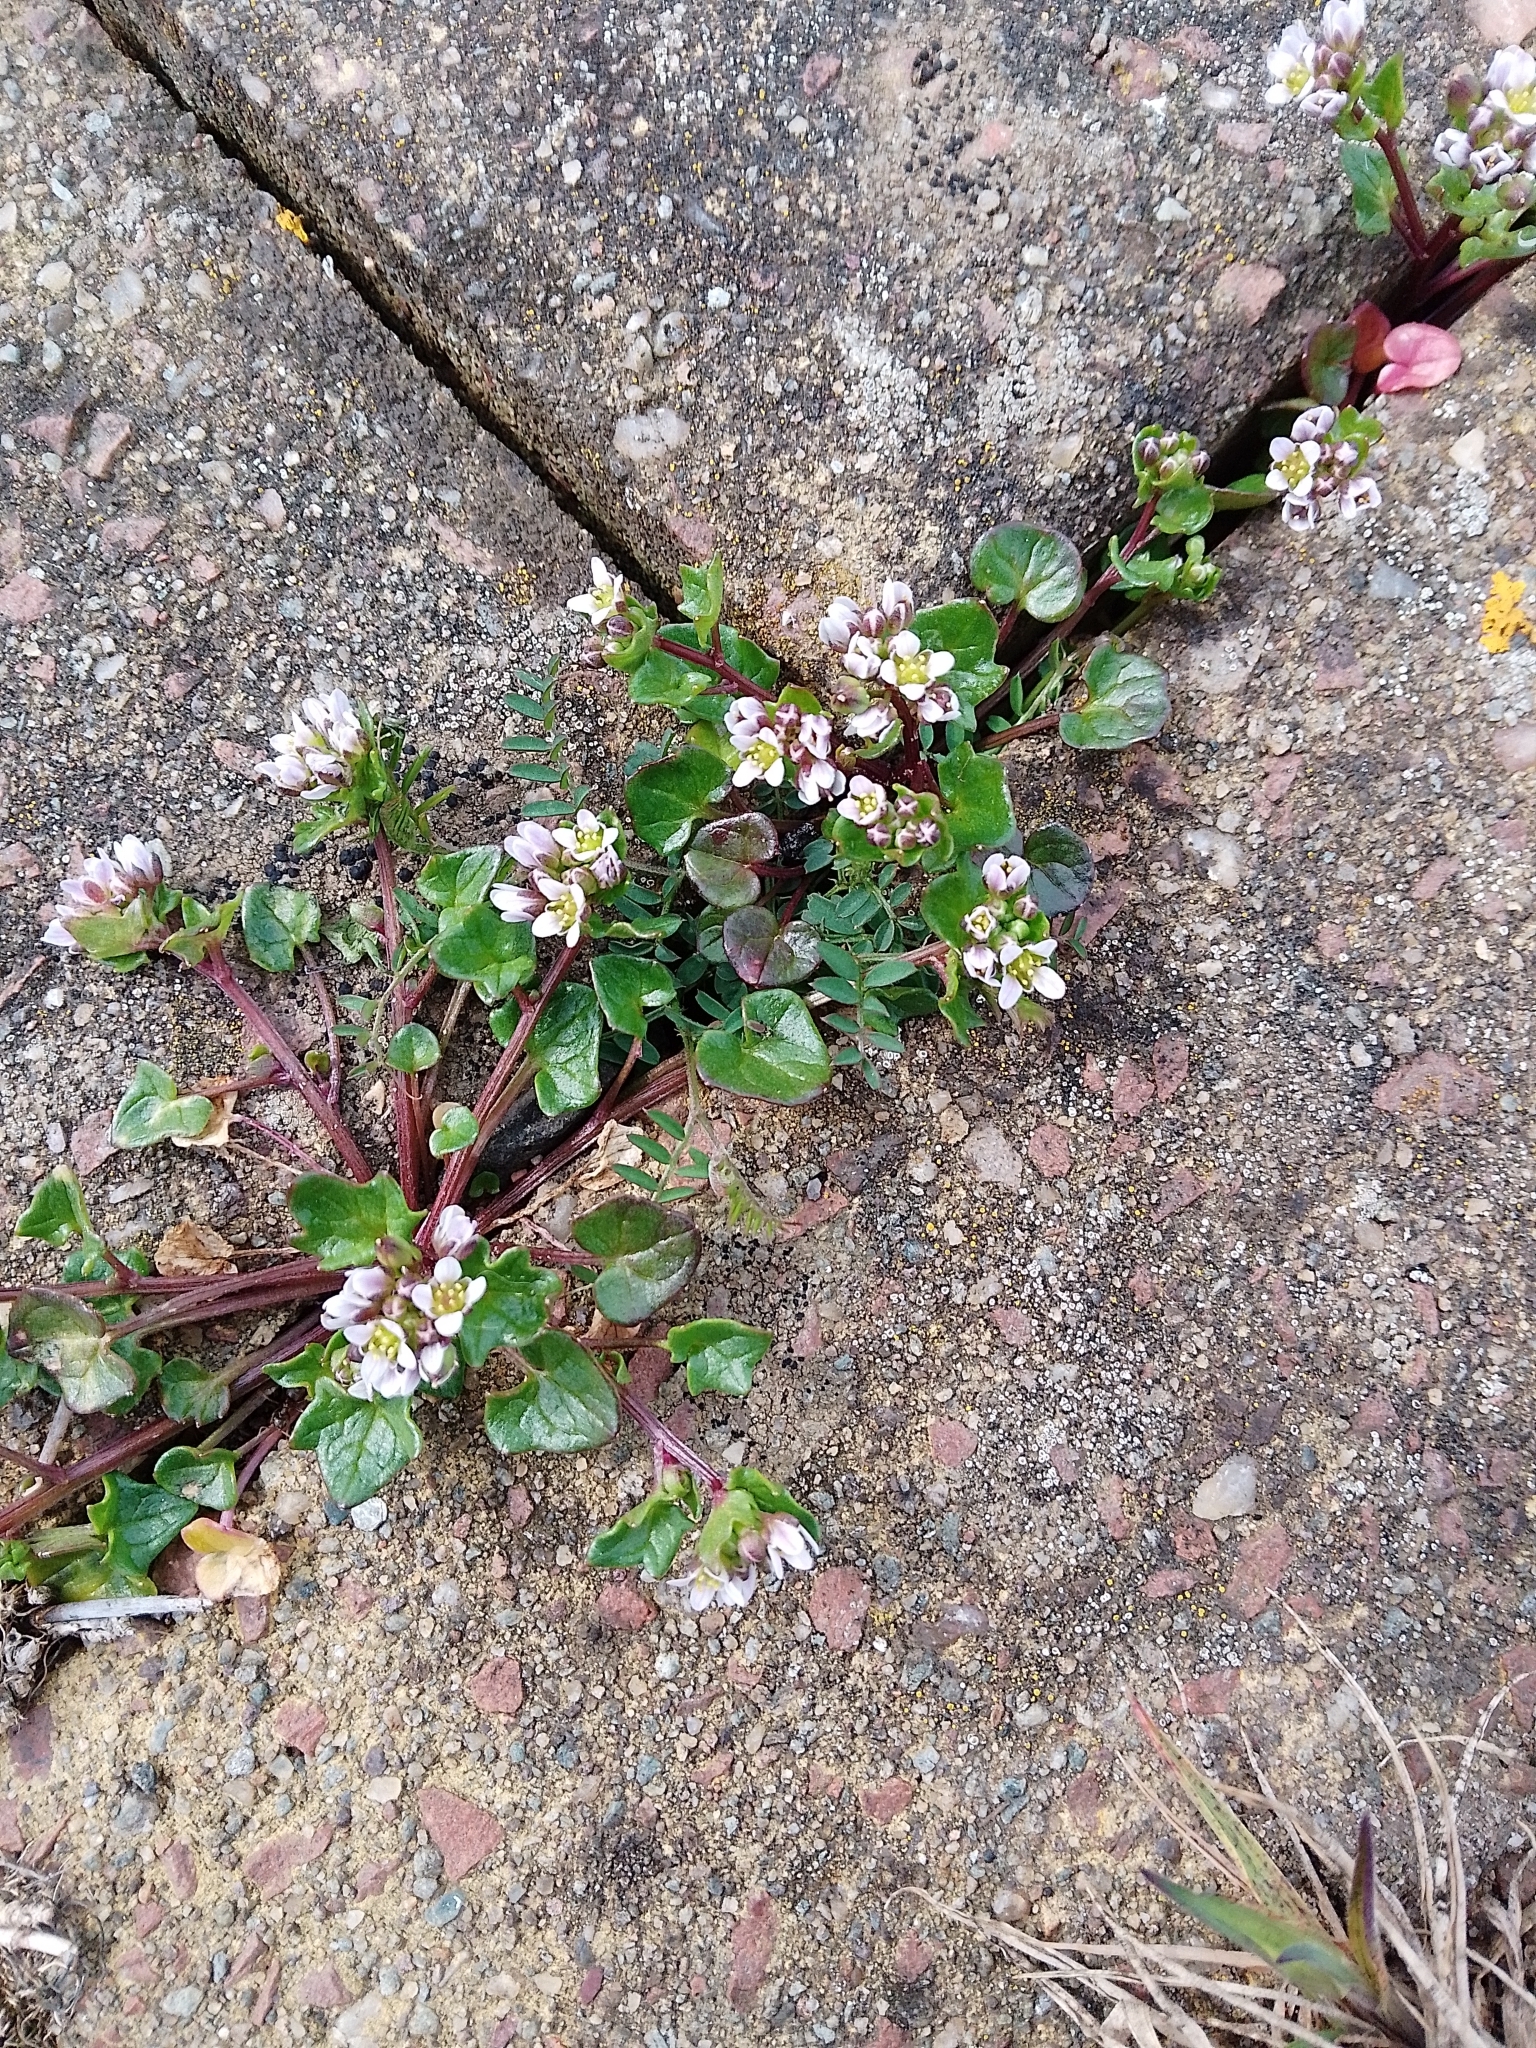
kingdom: Plantae
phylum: Tracheophyta
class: Magnoliopsida
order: Brassicales
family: Brassicaceae
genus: Cochlearia
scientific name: Cochlearia danica
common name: Early scurvygrass
